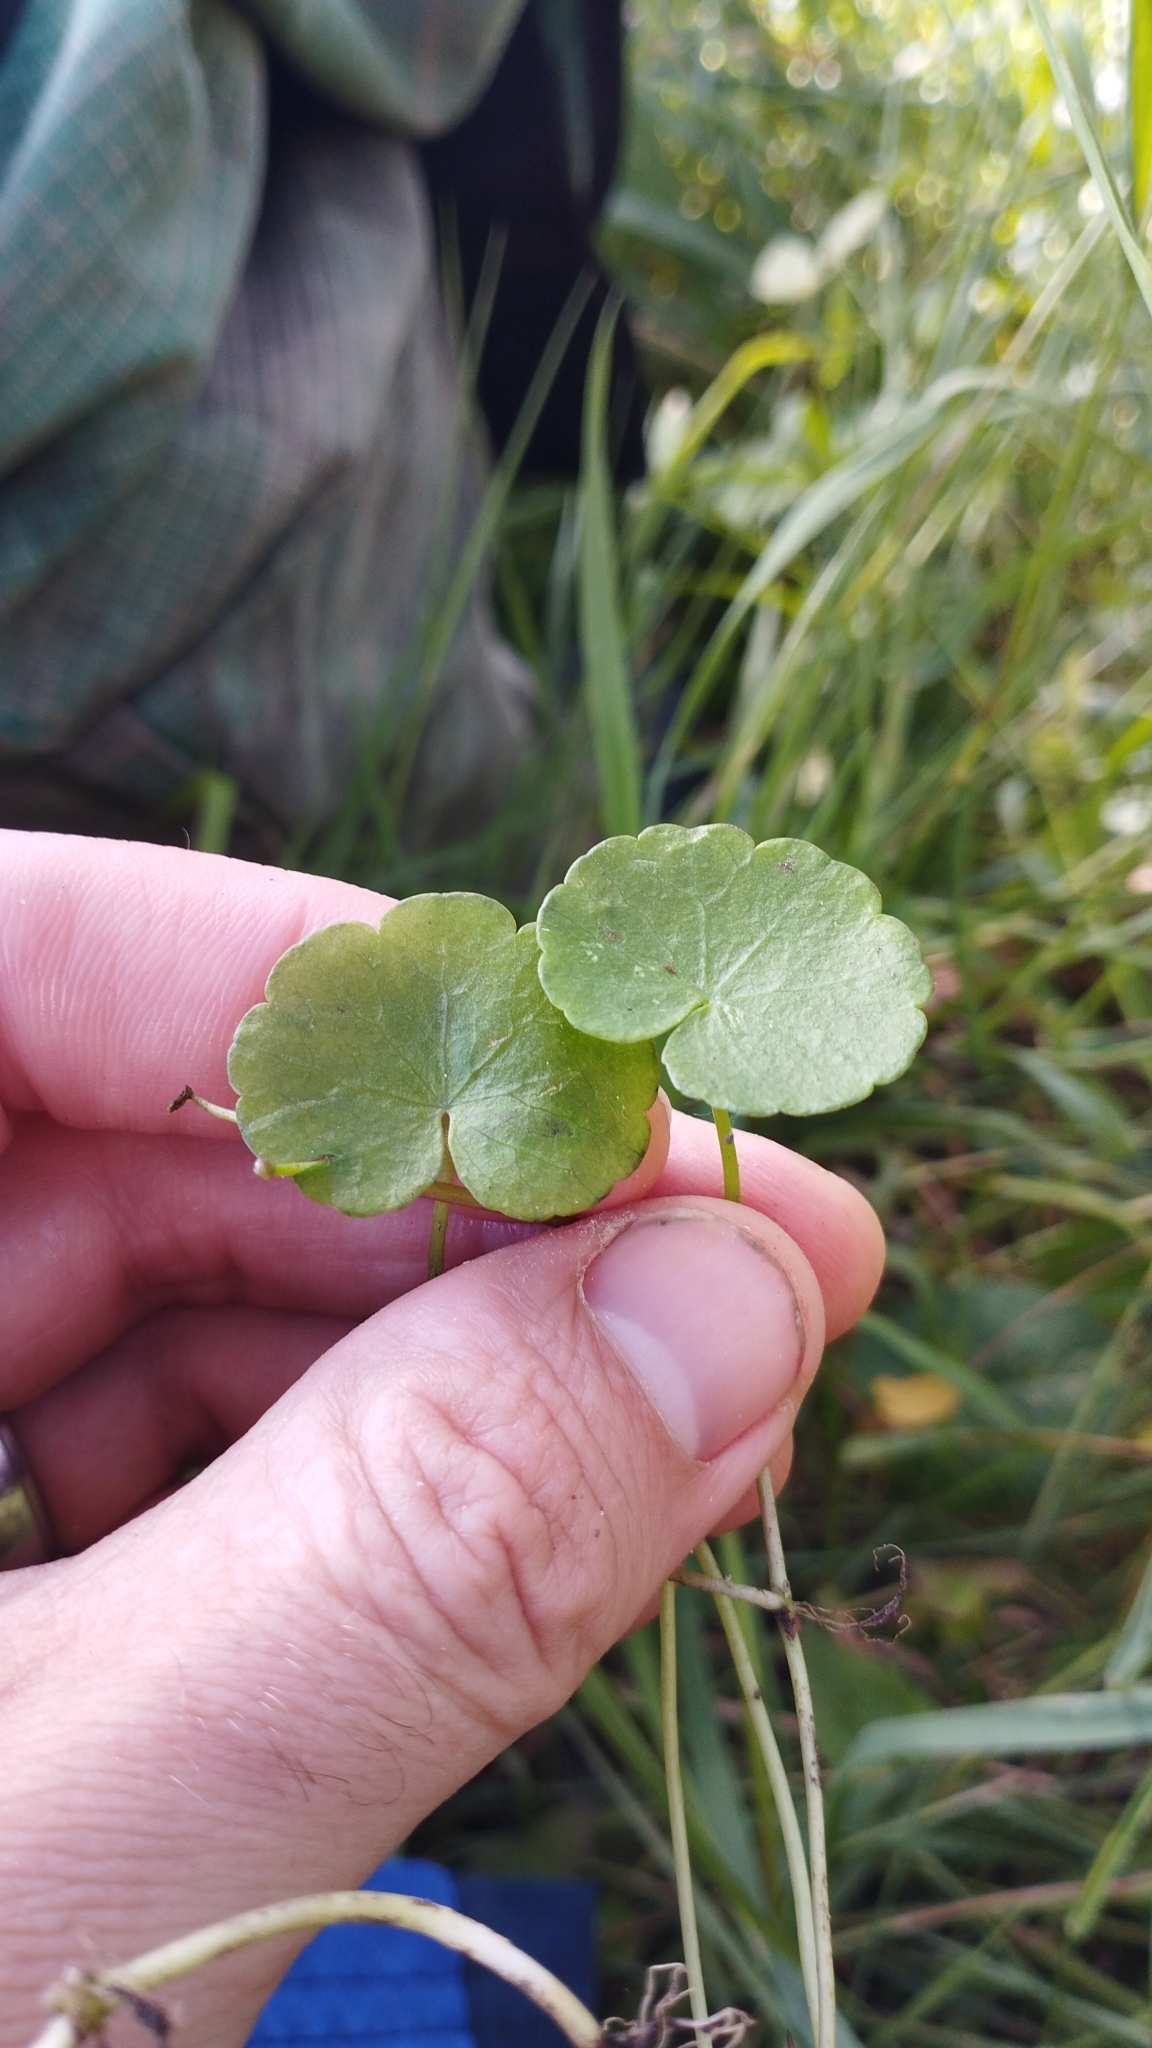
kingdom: Plantae
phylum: Tracheophyta
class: Magnoliopsida
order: Apiales
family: Araliaceae
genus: Hydrocotyle
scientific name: Hydrocotyle pterocarpa
